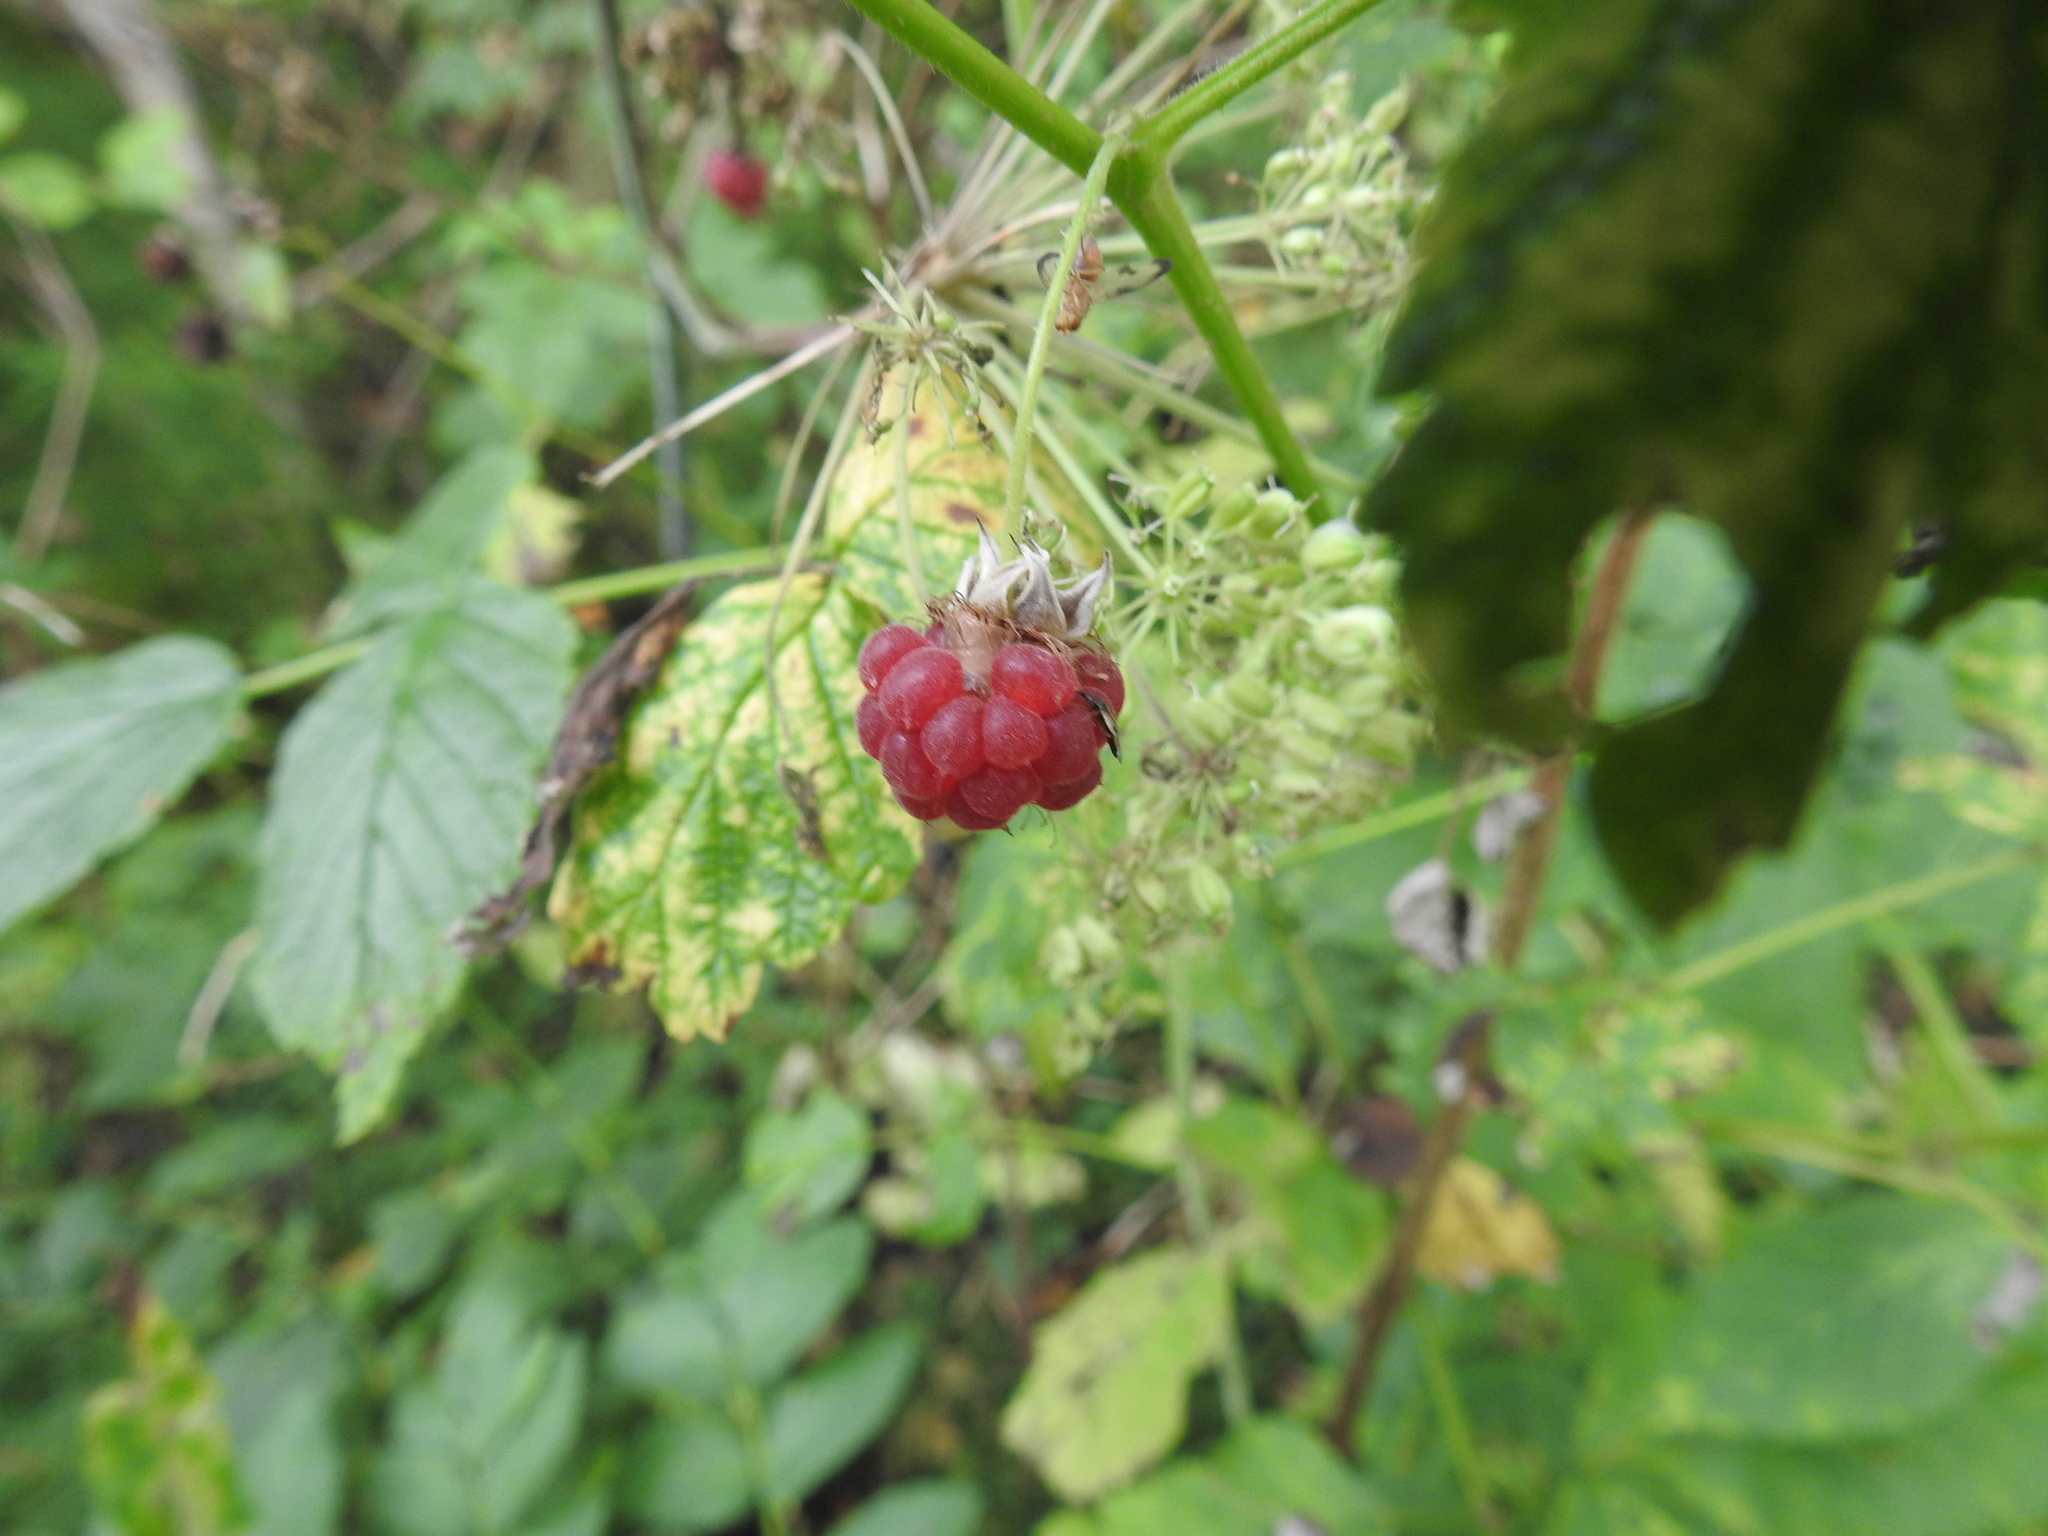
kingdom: Plantae
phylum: Tracheophyta
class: Magnoliopsida
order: Rosales
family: Rosaceae
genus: Rubus
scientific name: Rubus idaeus
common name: Raspberry
